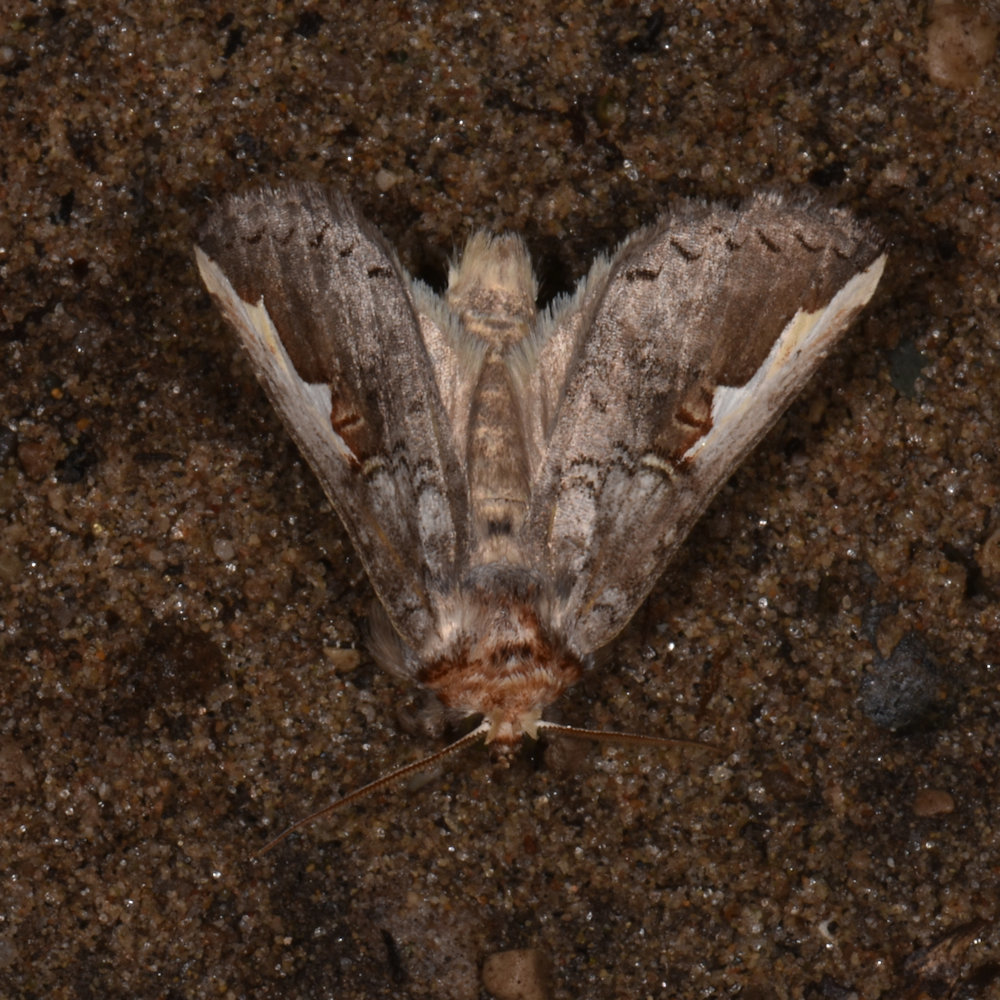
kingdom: Animalia
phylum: Arthropoda
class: Insecta
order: Lepidoptera
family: Notodontidae
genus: Symmerista
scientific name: Symmerista albifrons
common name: White-headed prominent
